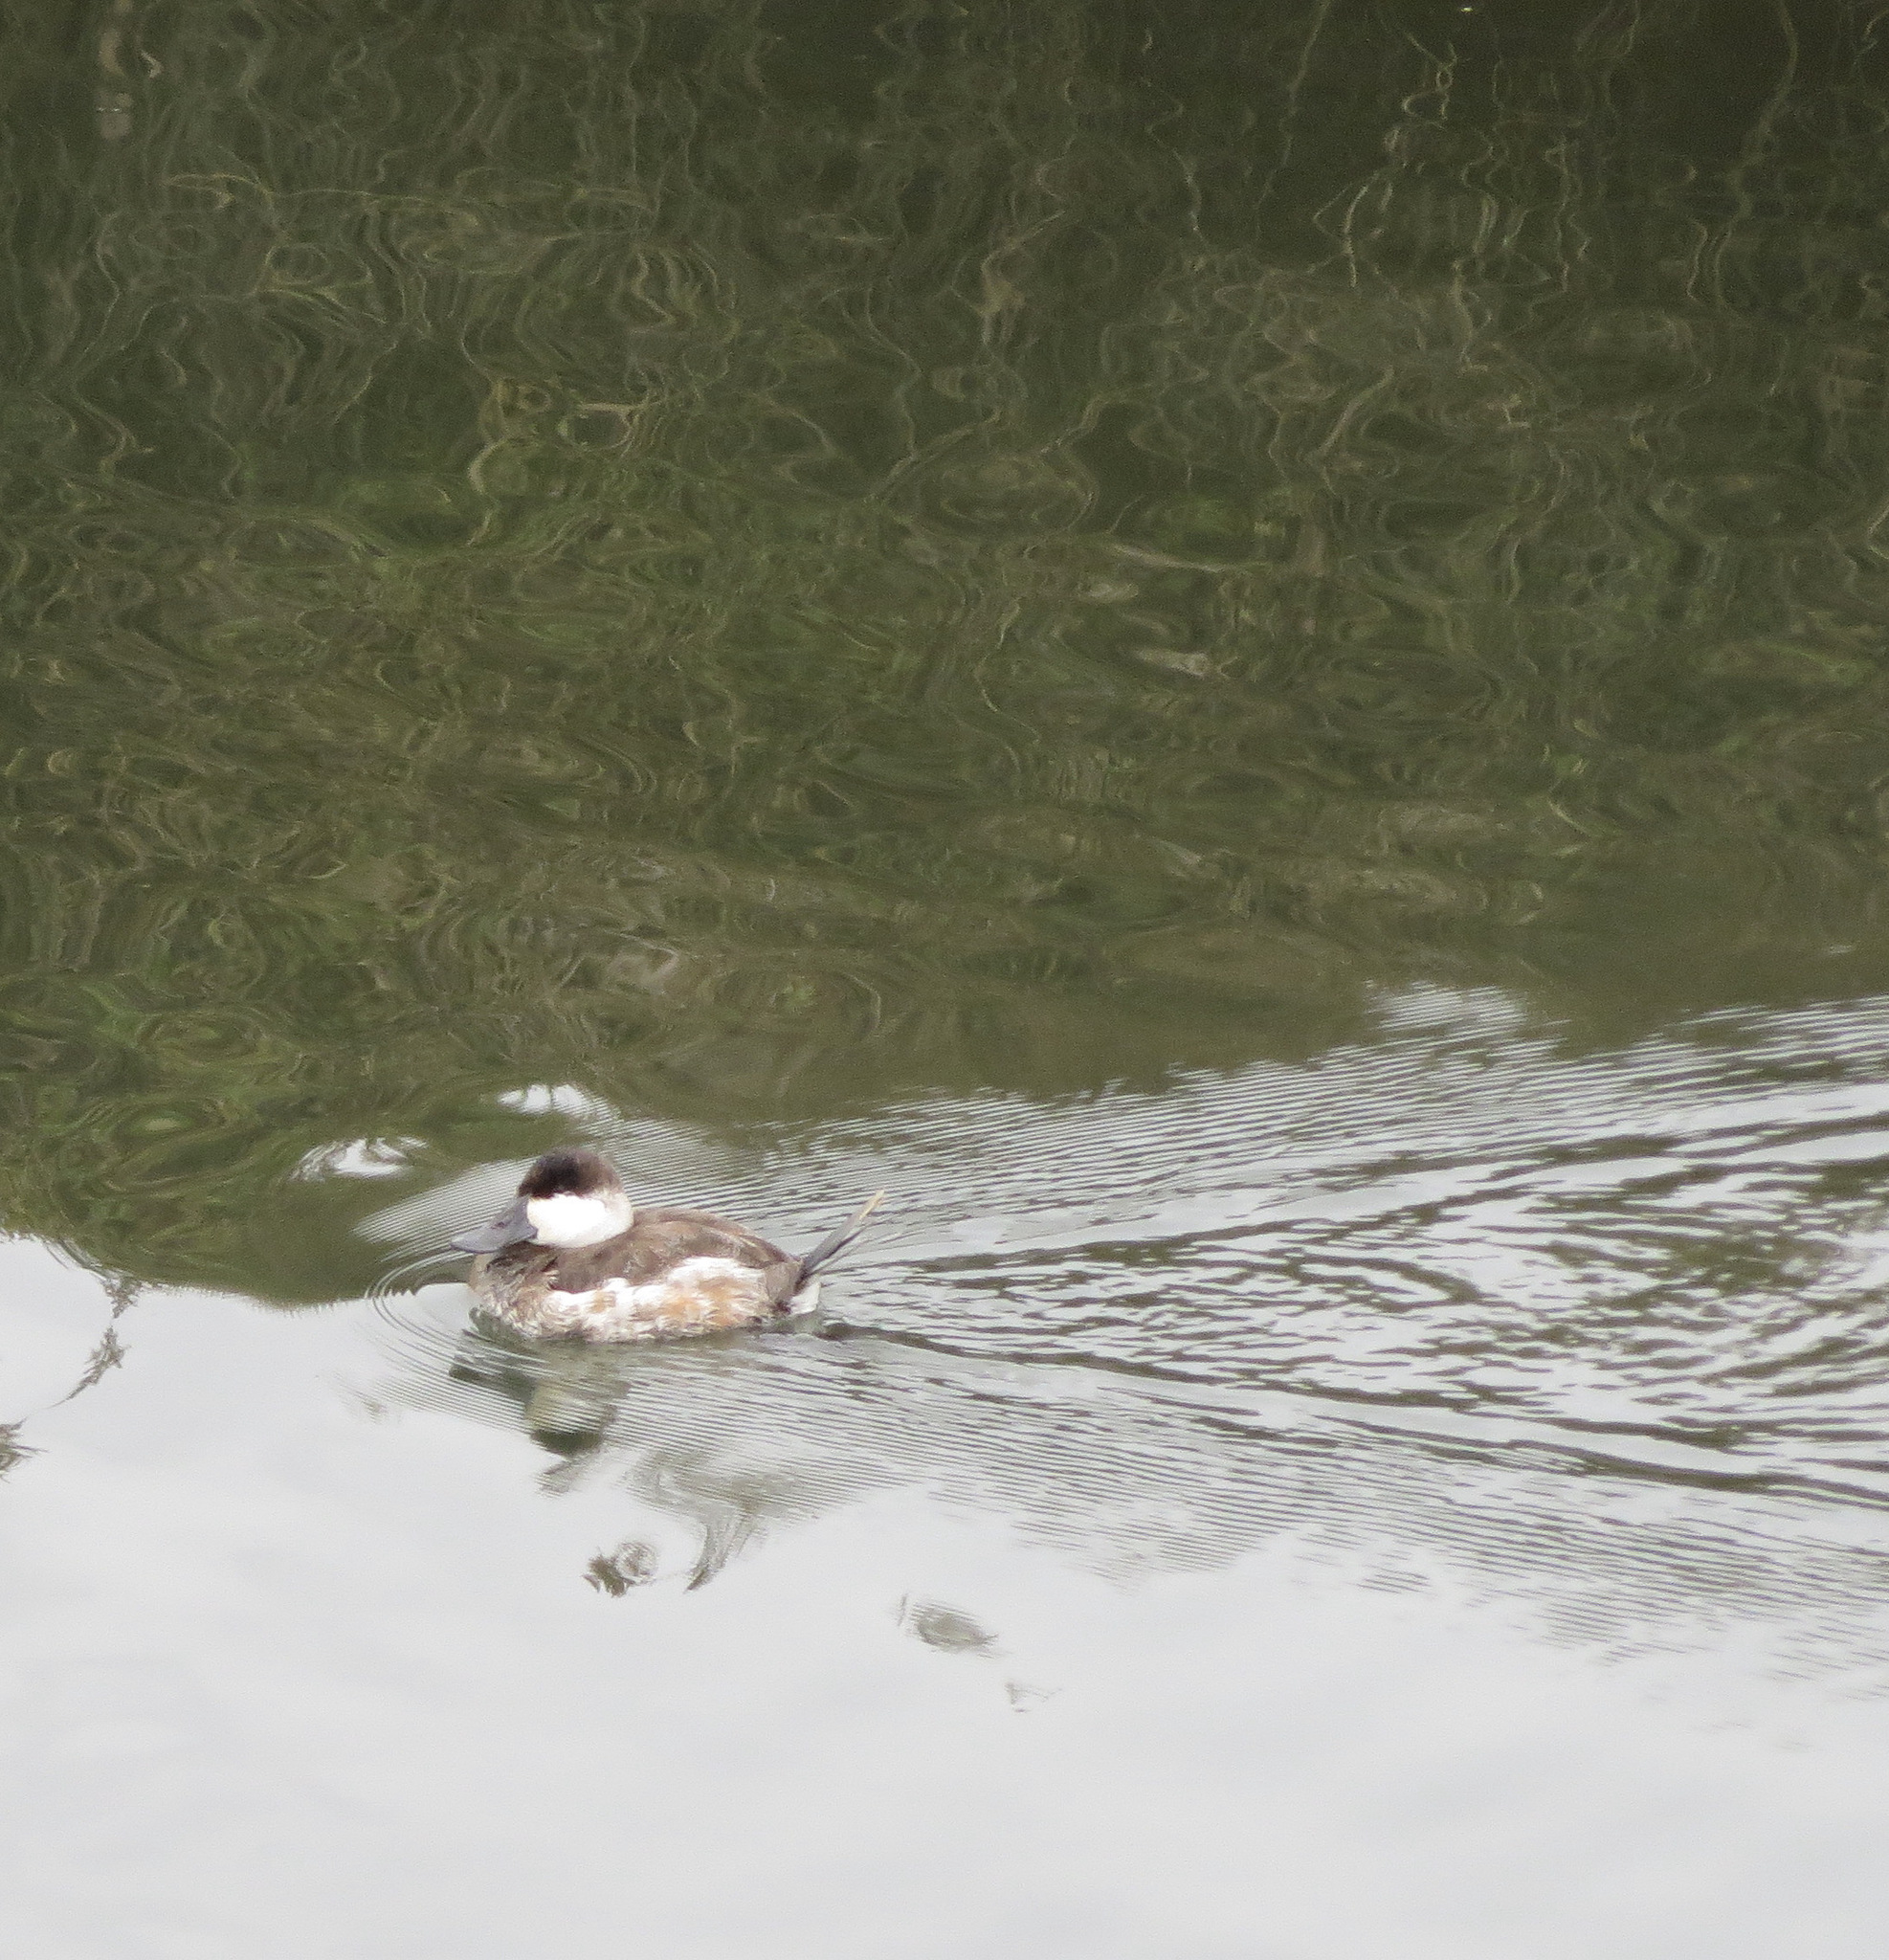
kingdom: Animalia
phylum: Chordata
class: Aves
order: Anseriformes
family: Anatidae
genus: Oxyura
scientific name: Oxyura jamaicensis
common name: Ruddy duck
